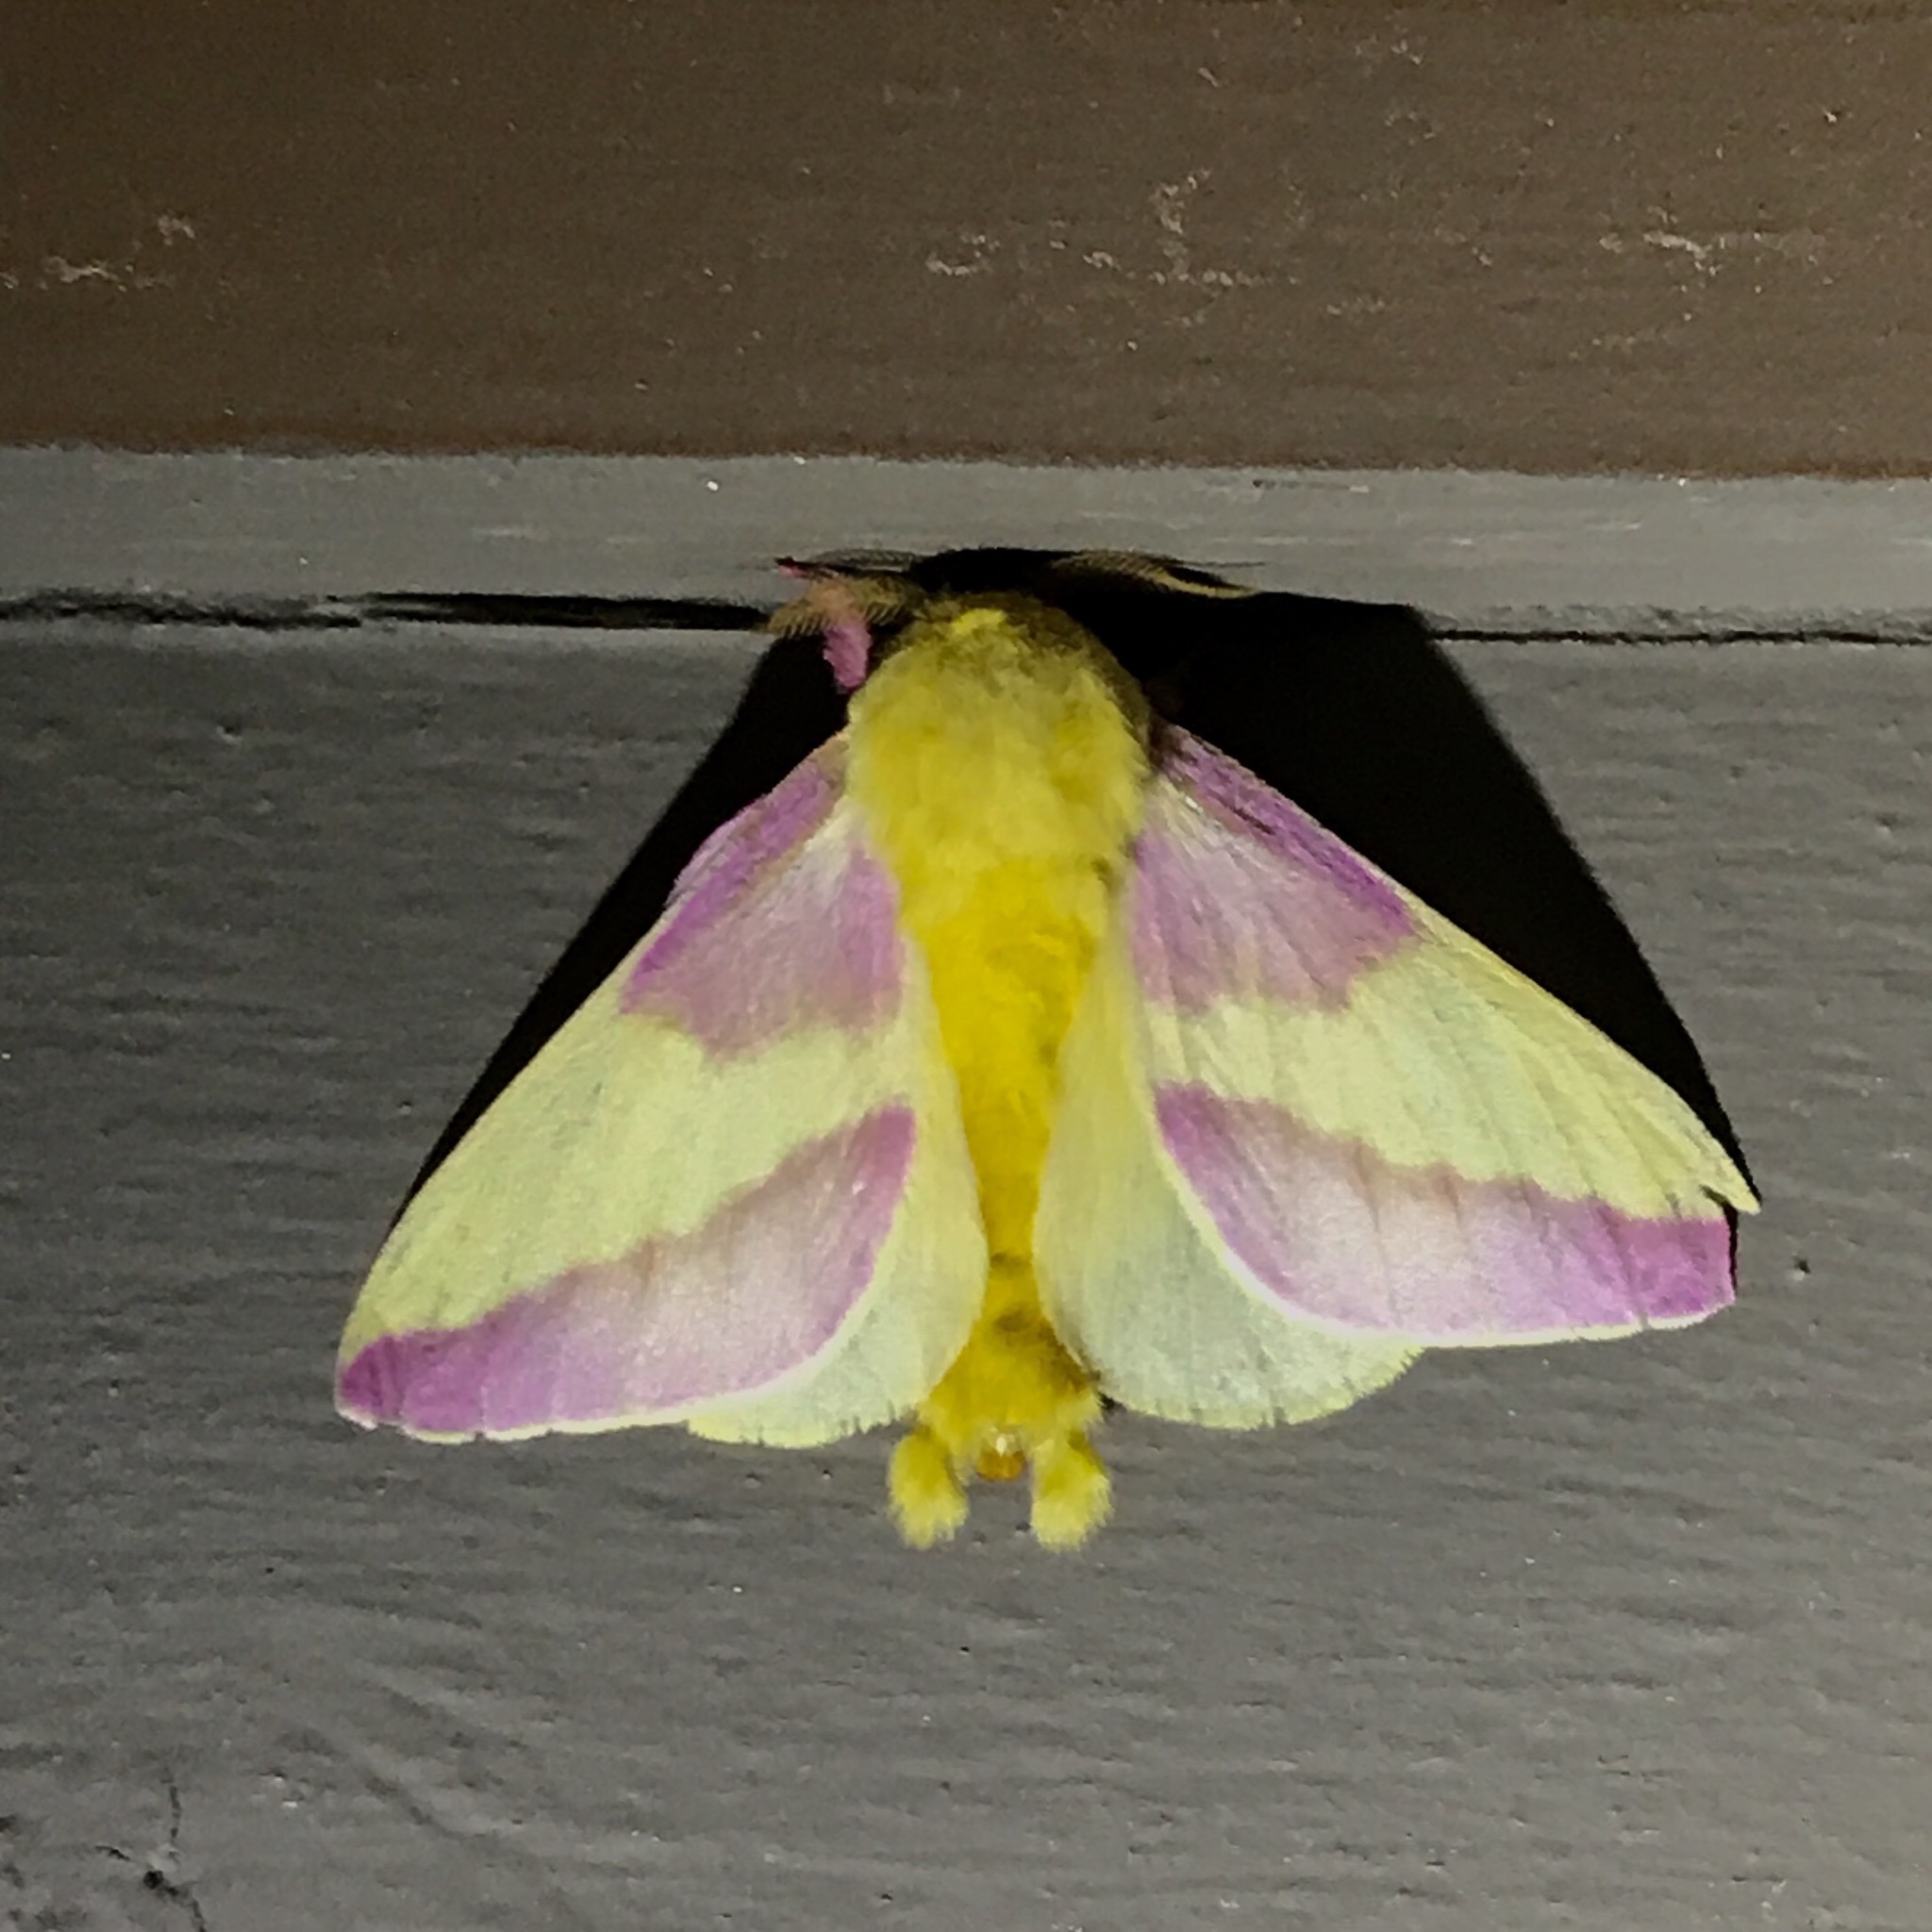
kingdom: Animalia
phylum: Arthropoda
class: Insecta
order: Lepidoptera
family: Saturniidae
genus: Dryocampa
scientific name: Dryocampa rubicunda
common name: Rosy maple moth
